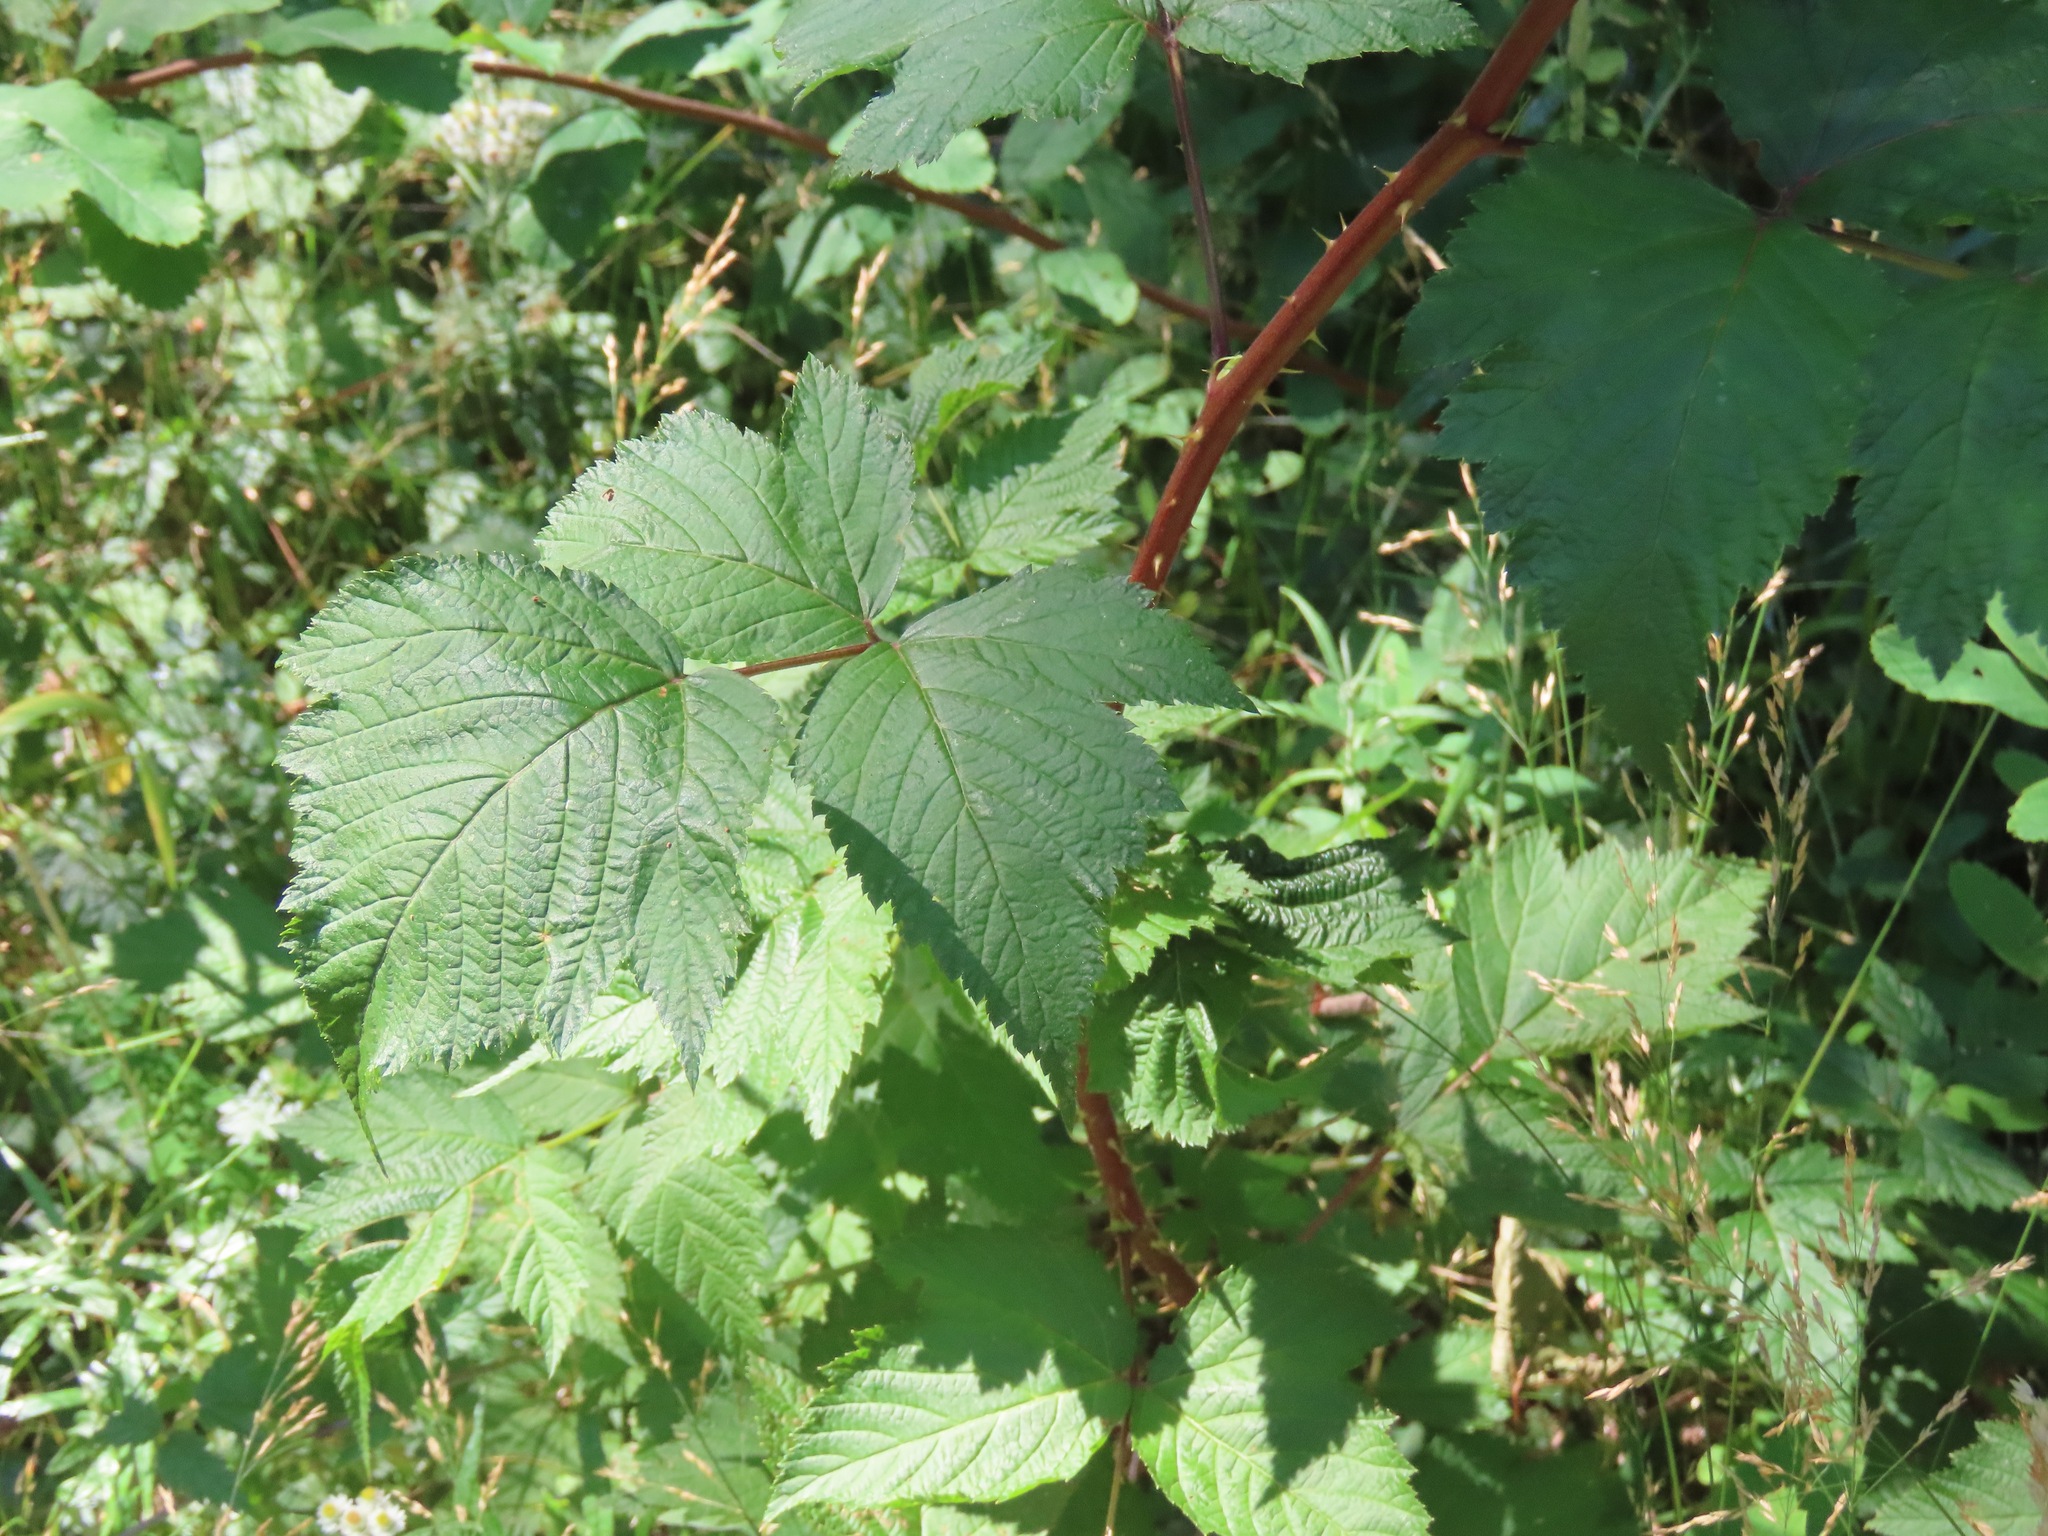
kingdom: Plantae
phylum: Tracheophyta
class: Magnoliopsida
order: Rosales
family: Rosaceae
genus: Rubus
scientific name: Rubus spectabilis
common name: Salmonberry
